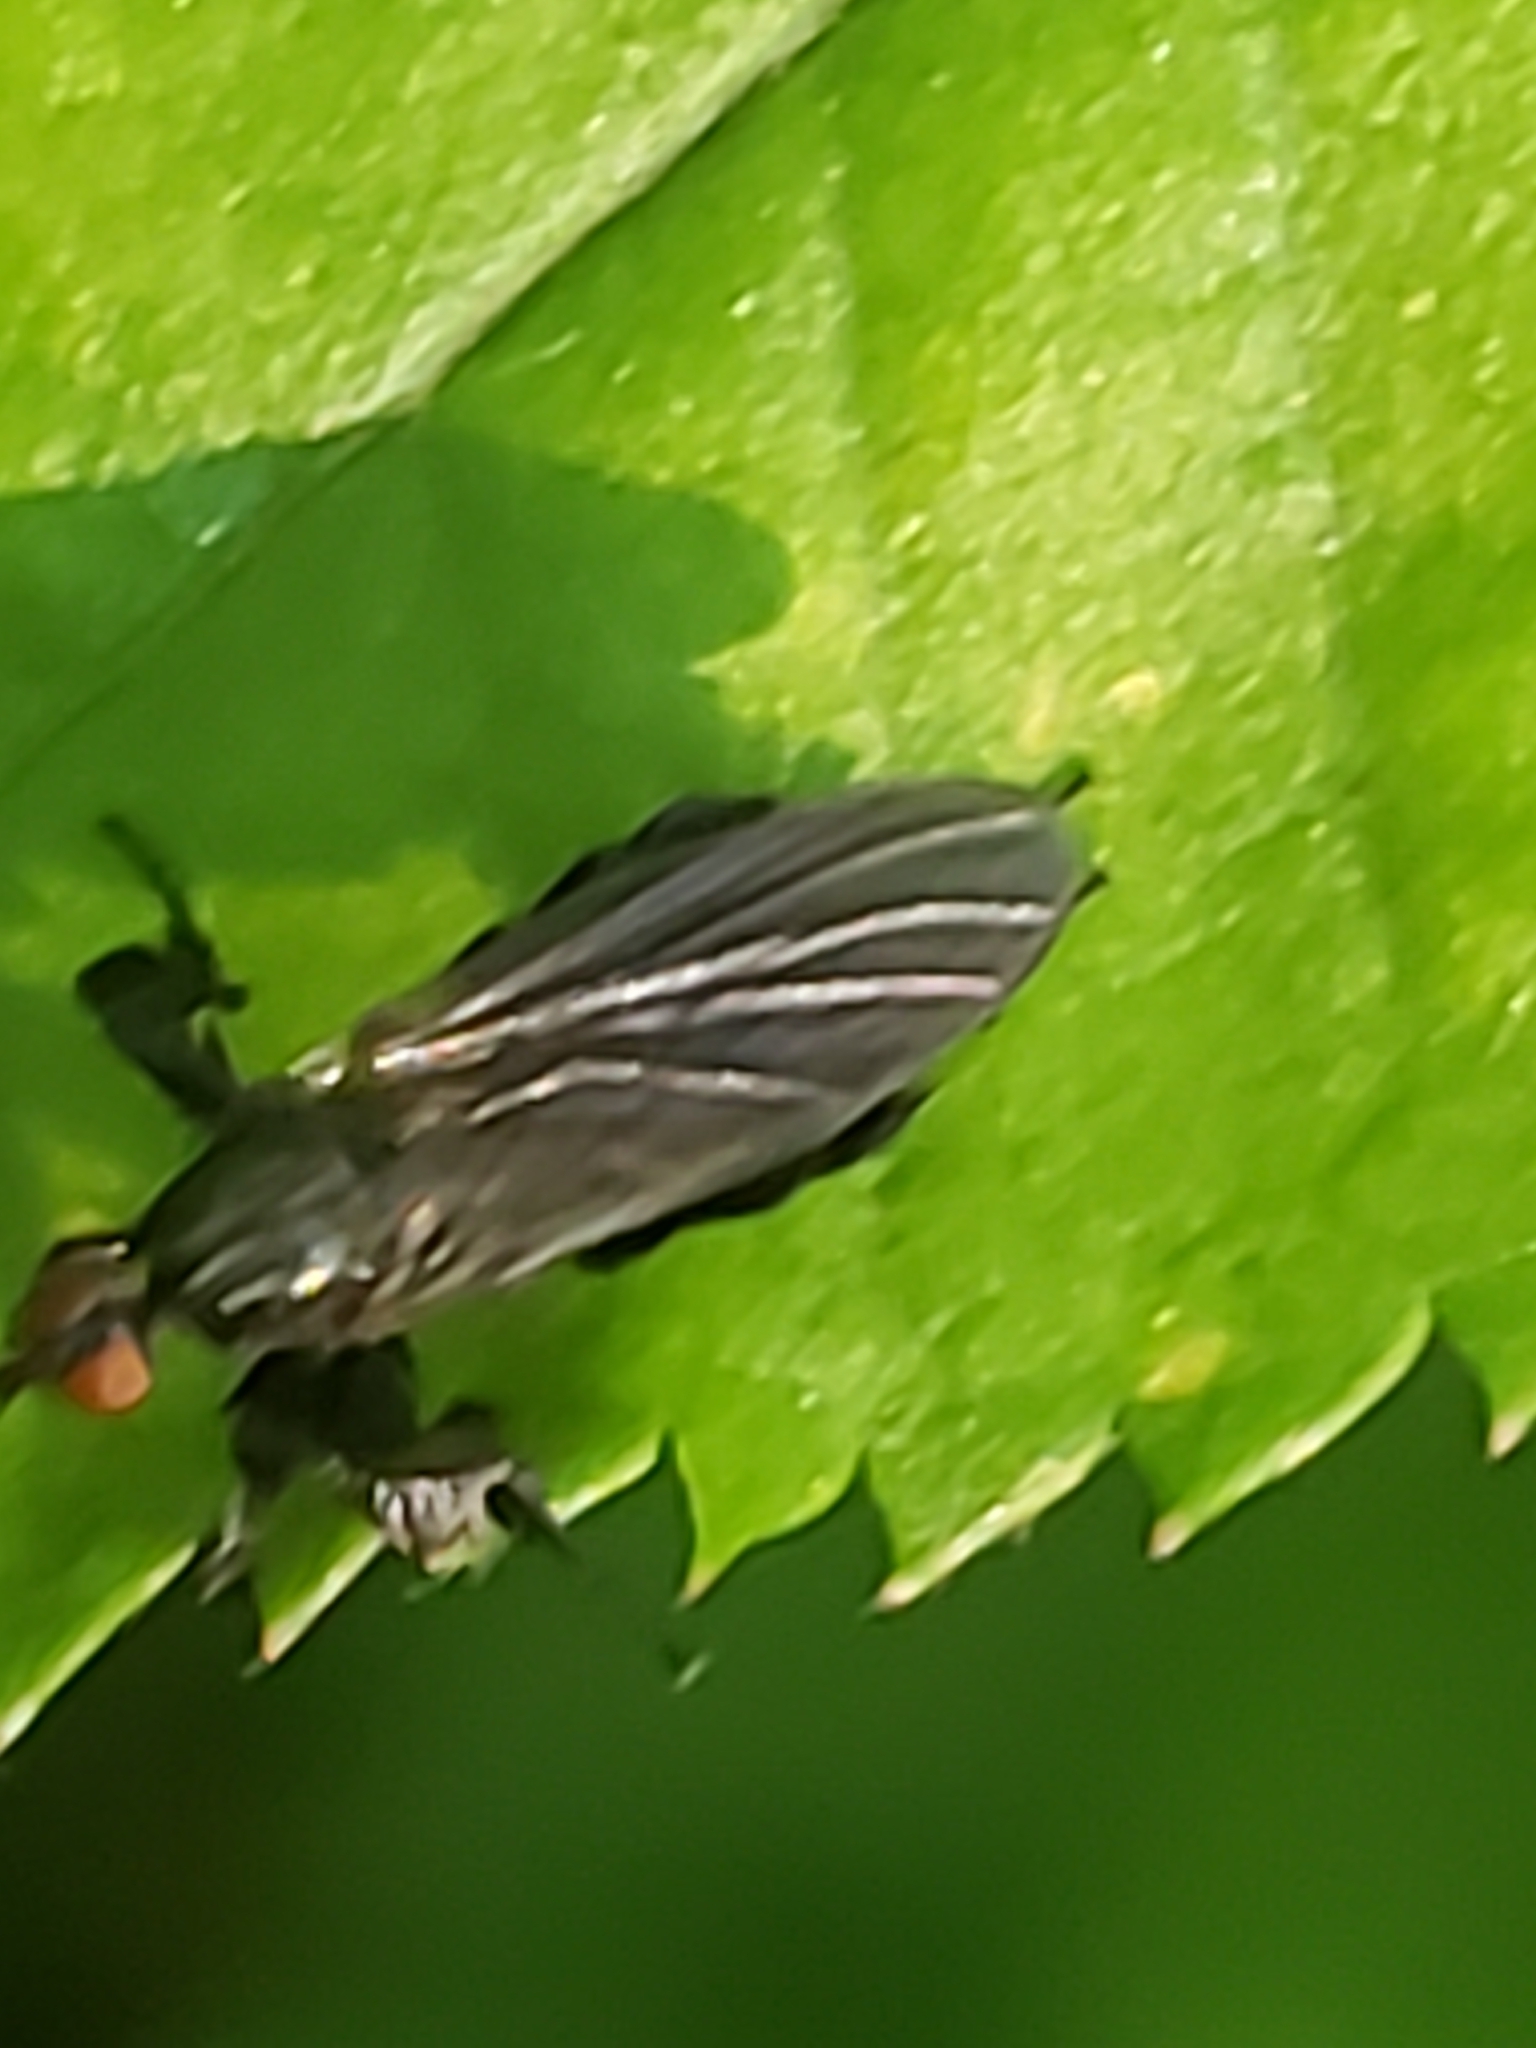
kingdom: Animalia
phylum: Arthropoda
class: Insecta
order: Diptera
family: Empididae
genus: Rhamphomyia
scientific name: Rhamphomyia longicauda
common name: Long-tailed dance fly
